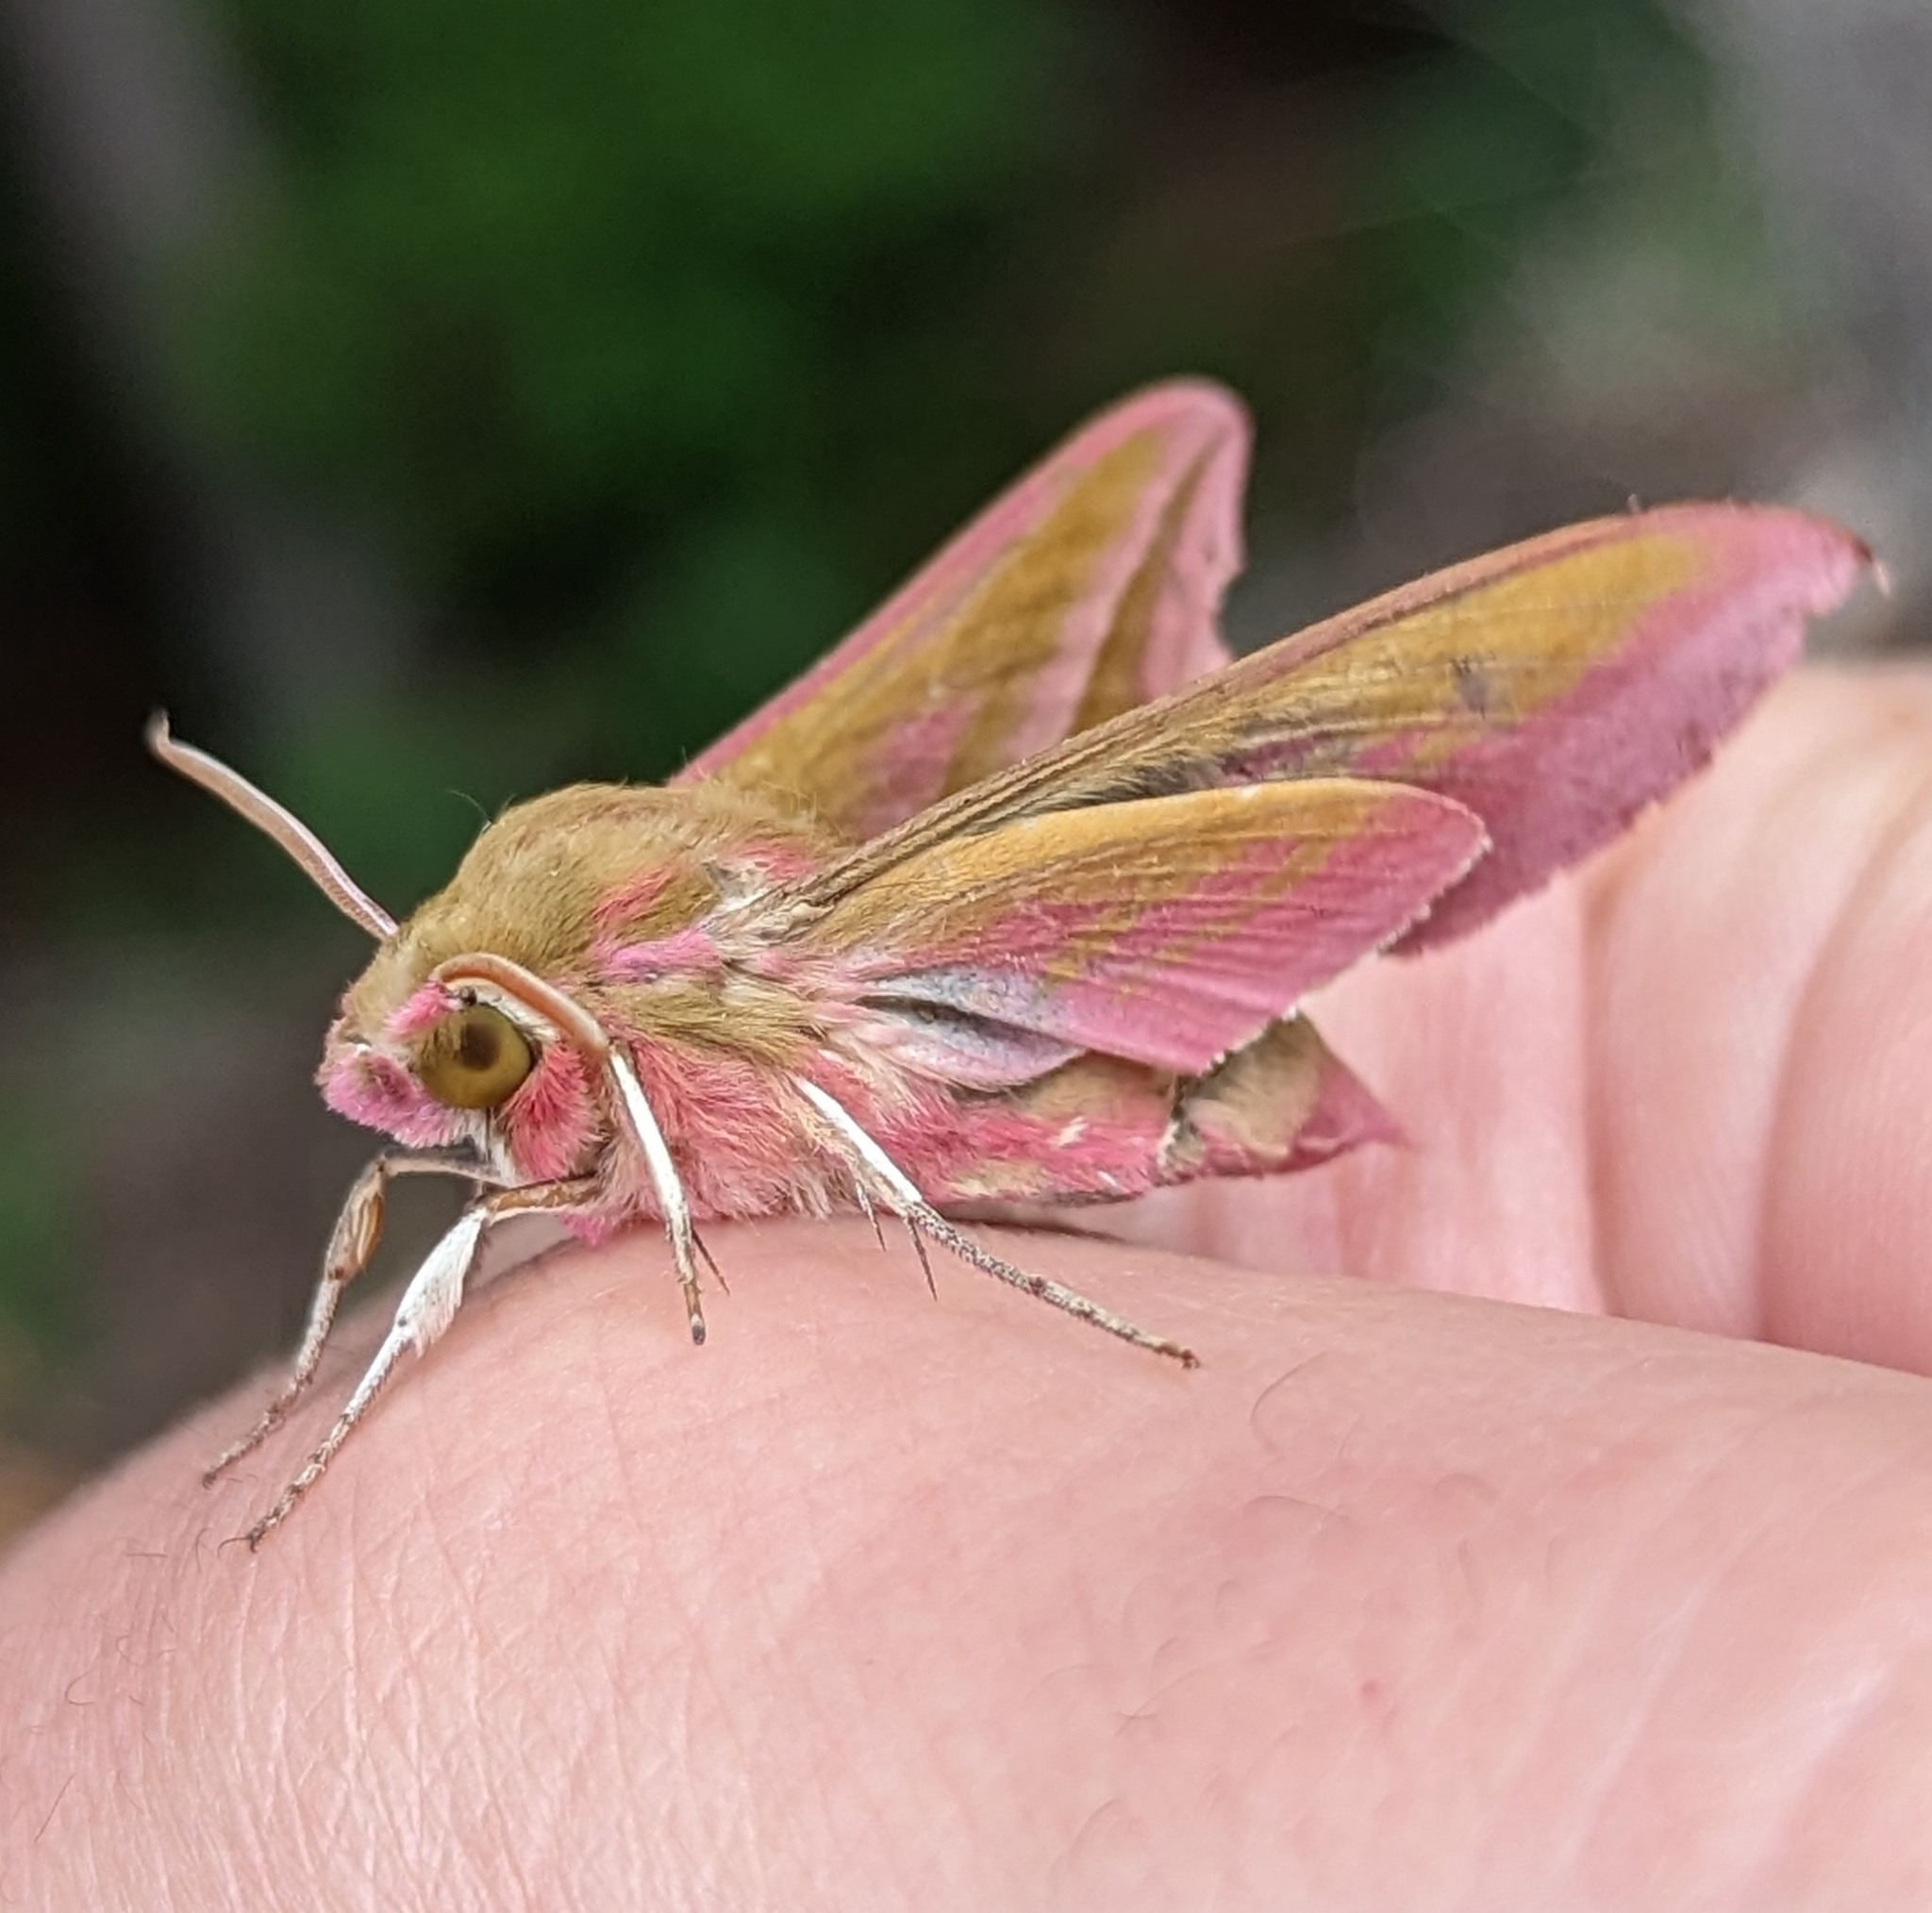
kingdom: Animalia
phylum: Arthropoda
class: Insecta
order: Lepidoptera
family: Sphingidae
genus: Deilephila
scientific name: Deilephila elpenor
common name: Elephant hawk-moth
